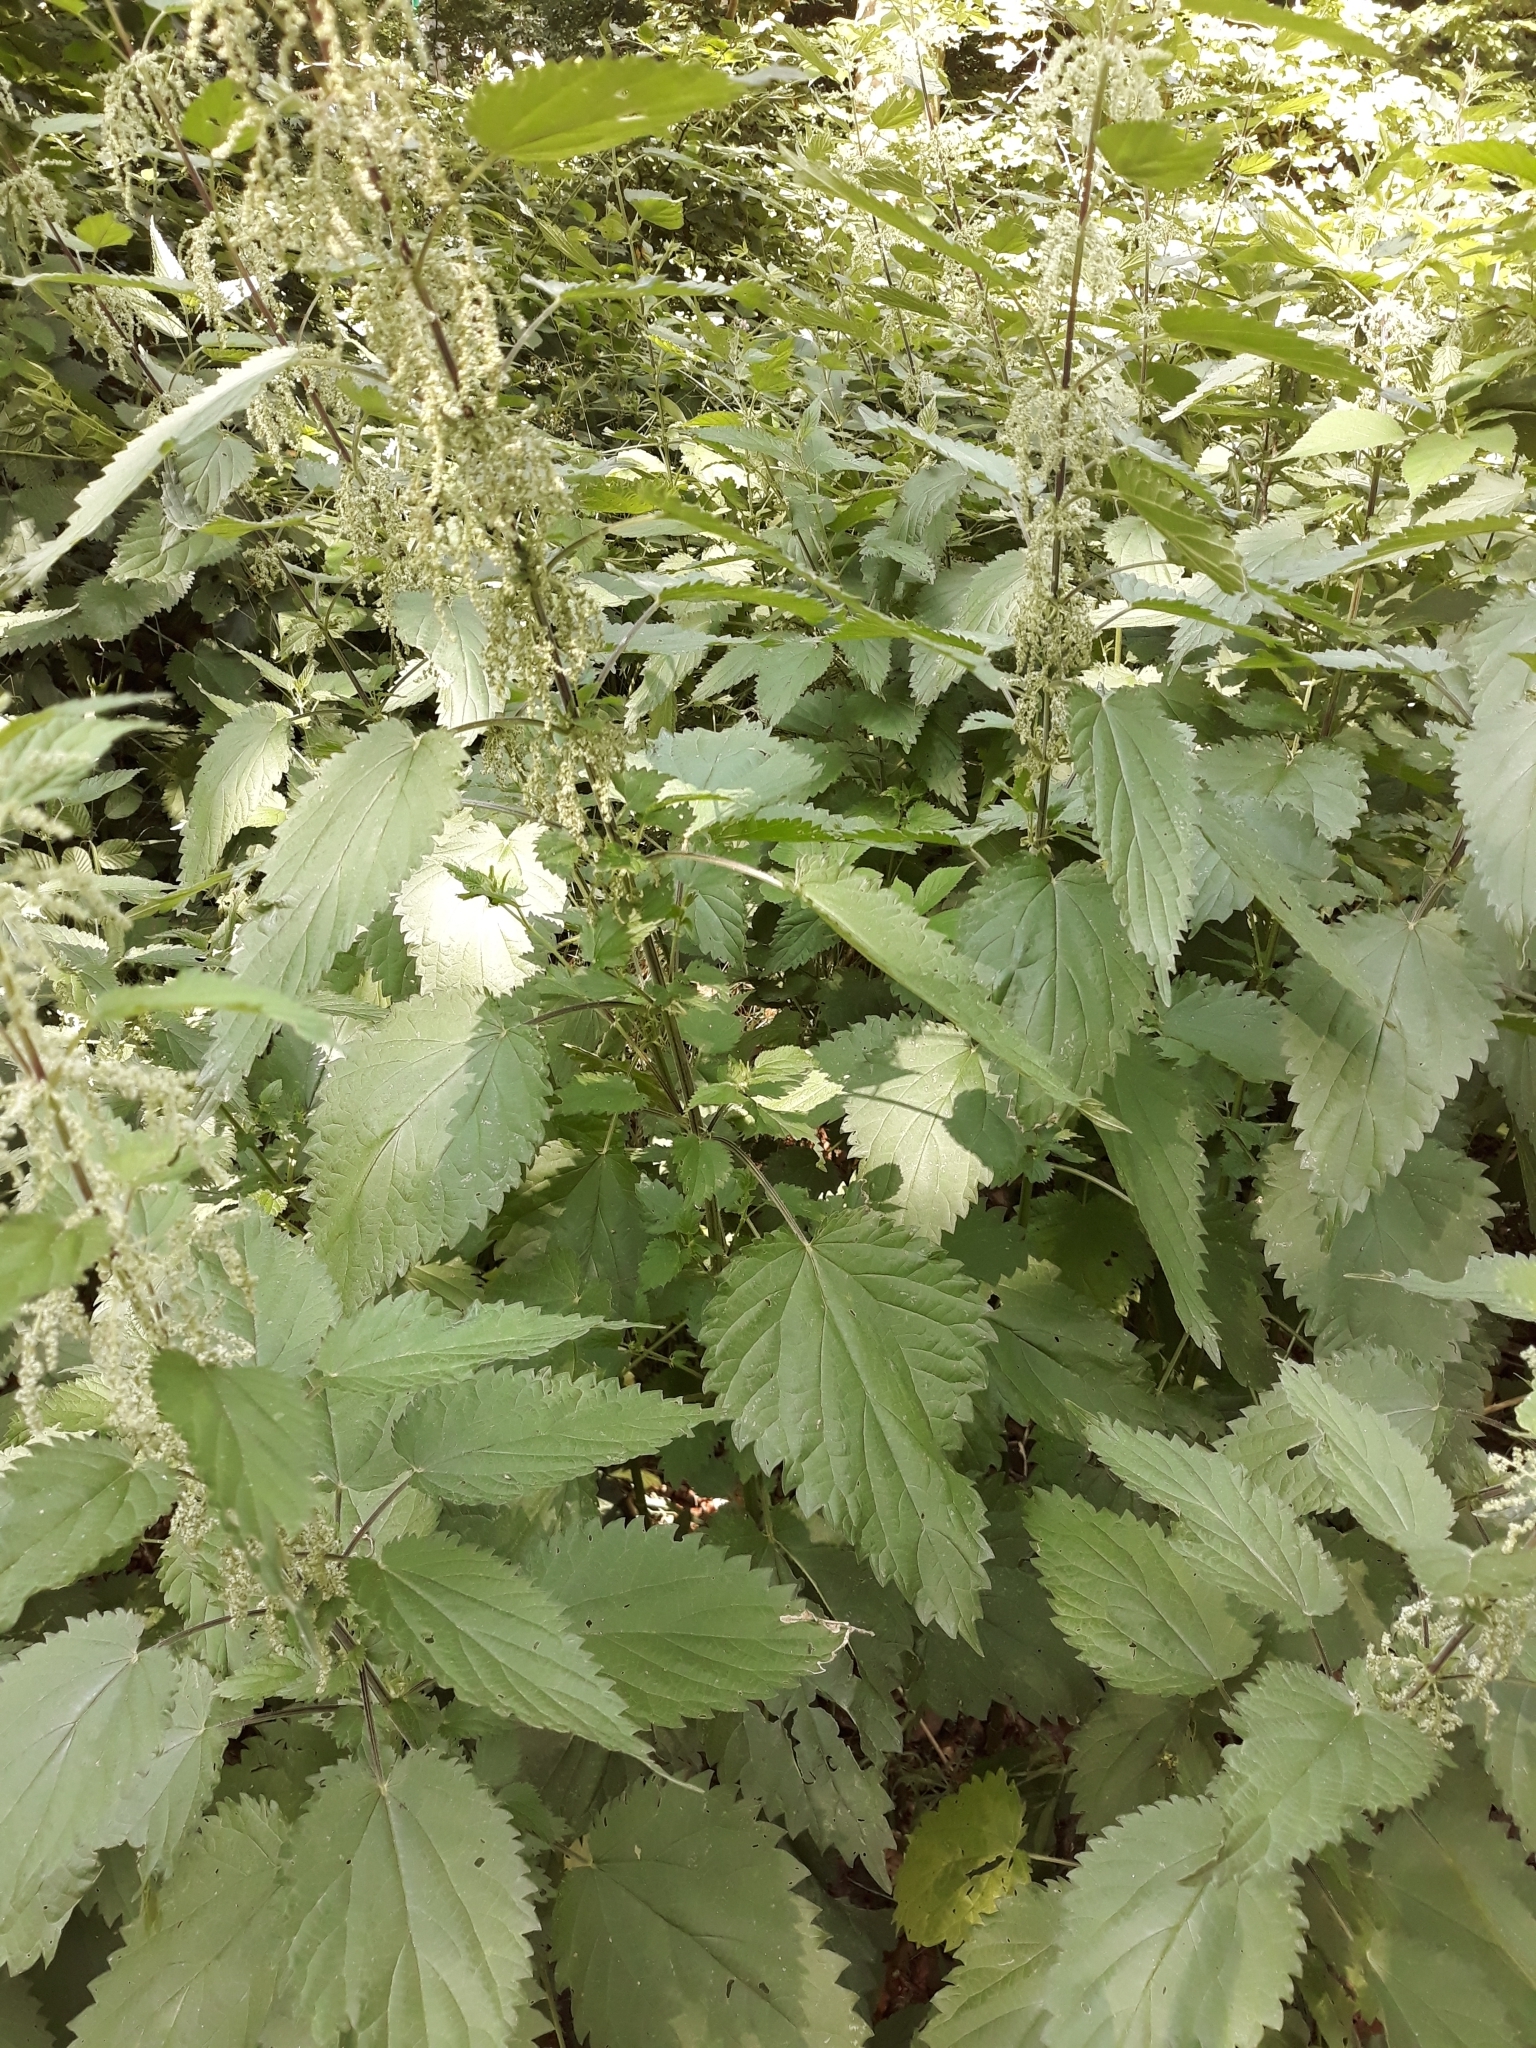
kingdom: Plantae
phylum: Tracheophyta
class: Magnoliopsida
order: Rosales
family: Urticaceae
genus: Urtica
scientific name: Urtica dioica
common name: Common nettle
